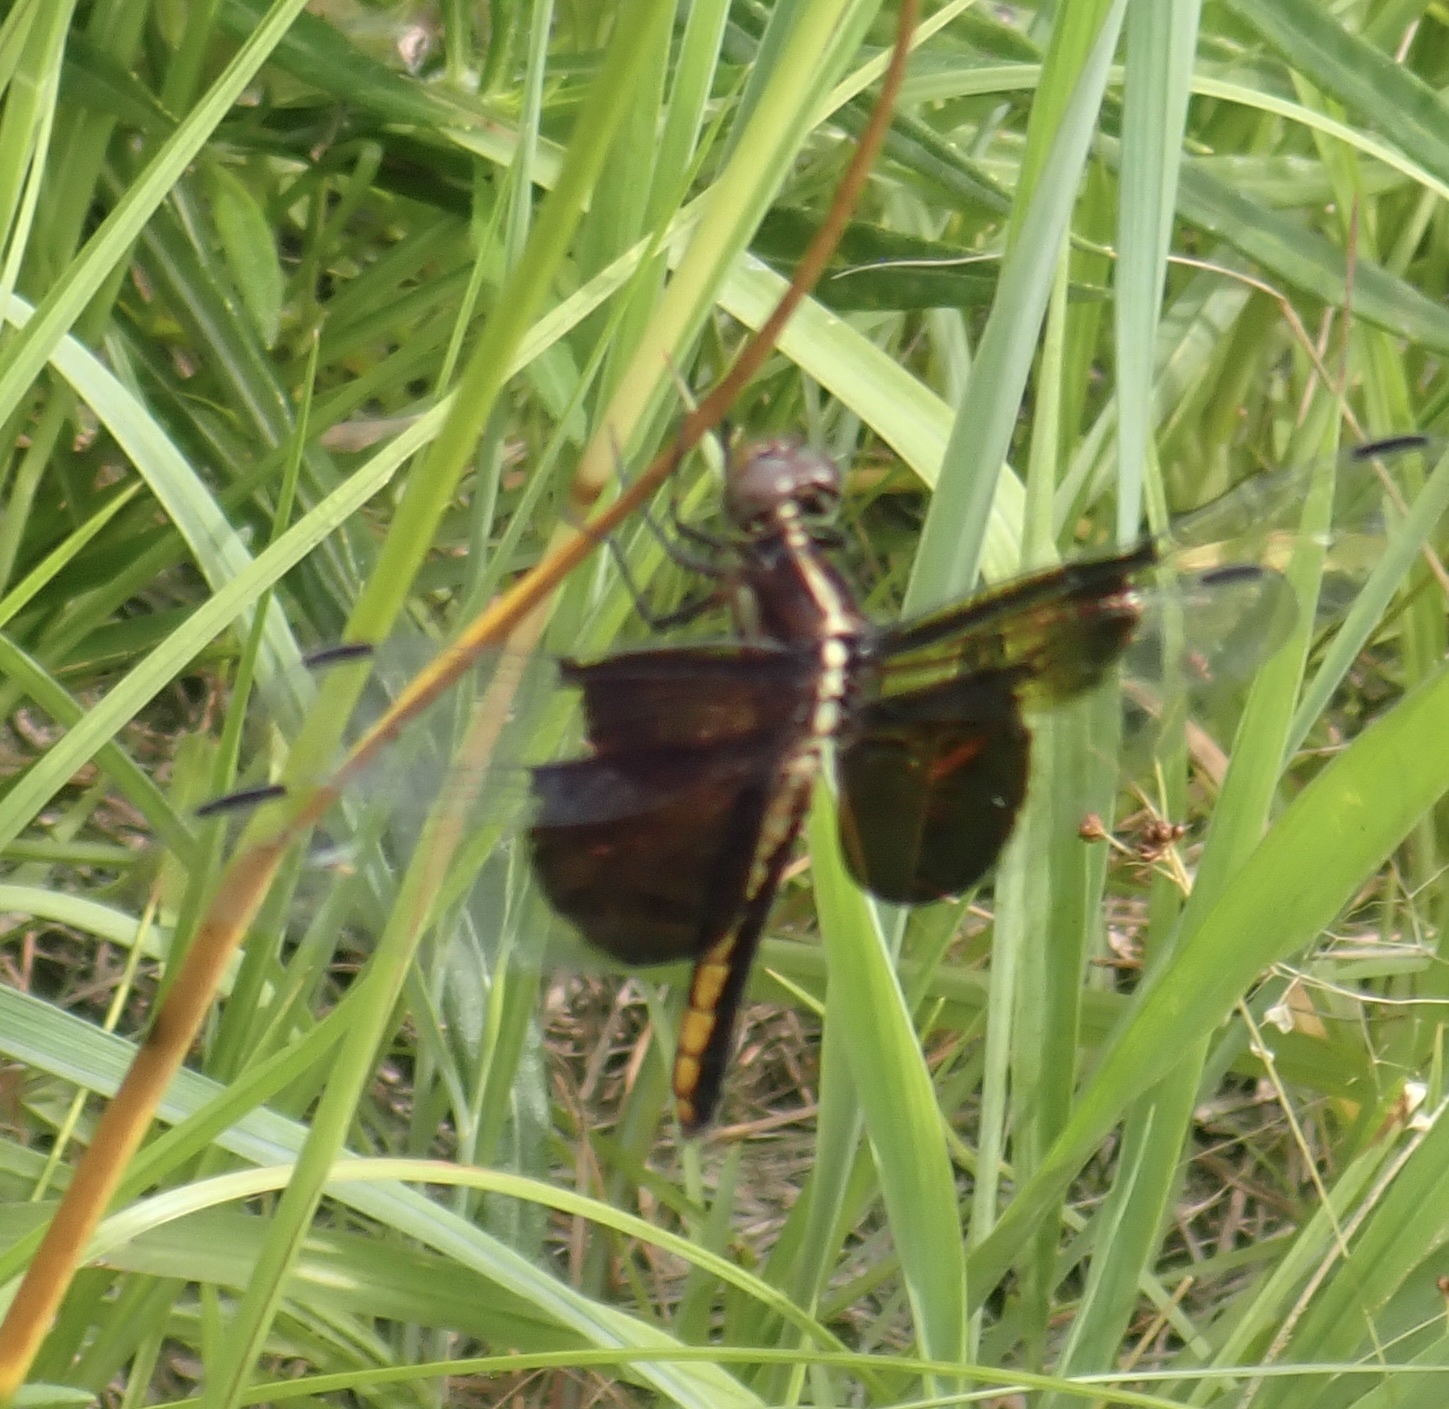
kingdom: Animalia
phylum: Arthropoda
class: Insecta
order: Odonata
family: Libellulidae
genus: Libellula
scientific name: Libellula luctuosa
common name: Widow skimmer
